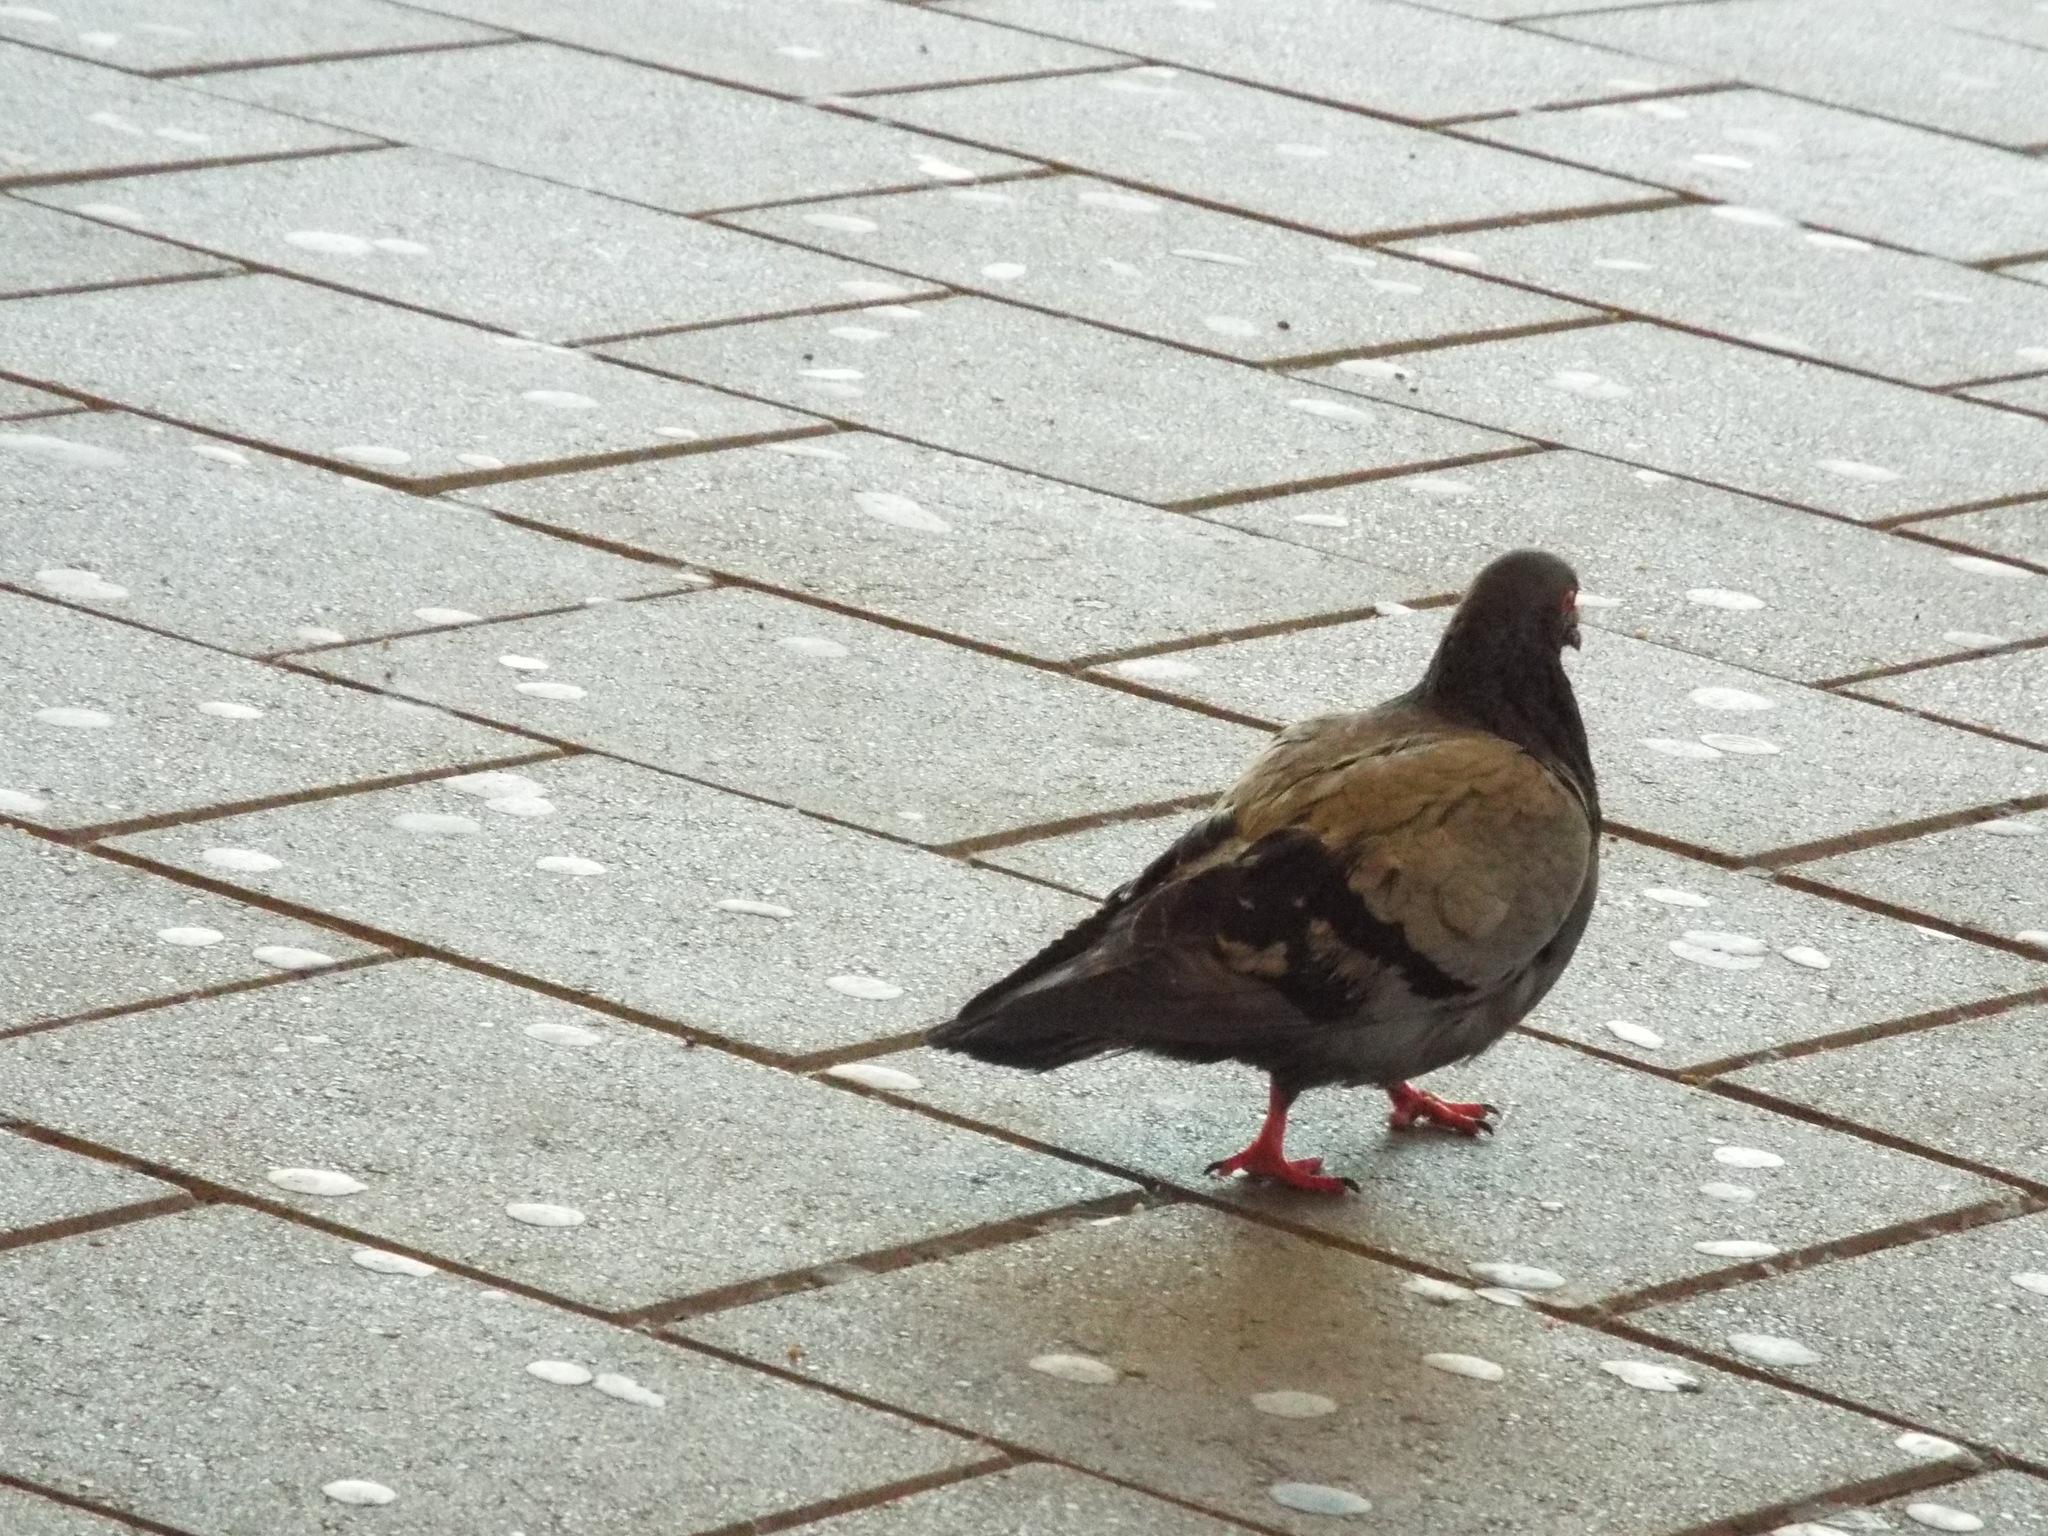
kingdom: Animalia
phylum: Chordata
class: Aves
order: Columbiformes
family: Columbidae
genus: Columba
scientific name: Columba livia
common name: Rock pigeon
